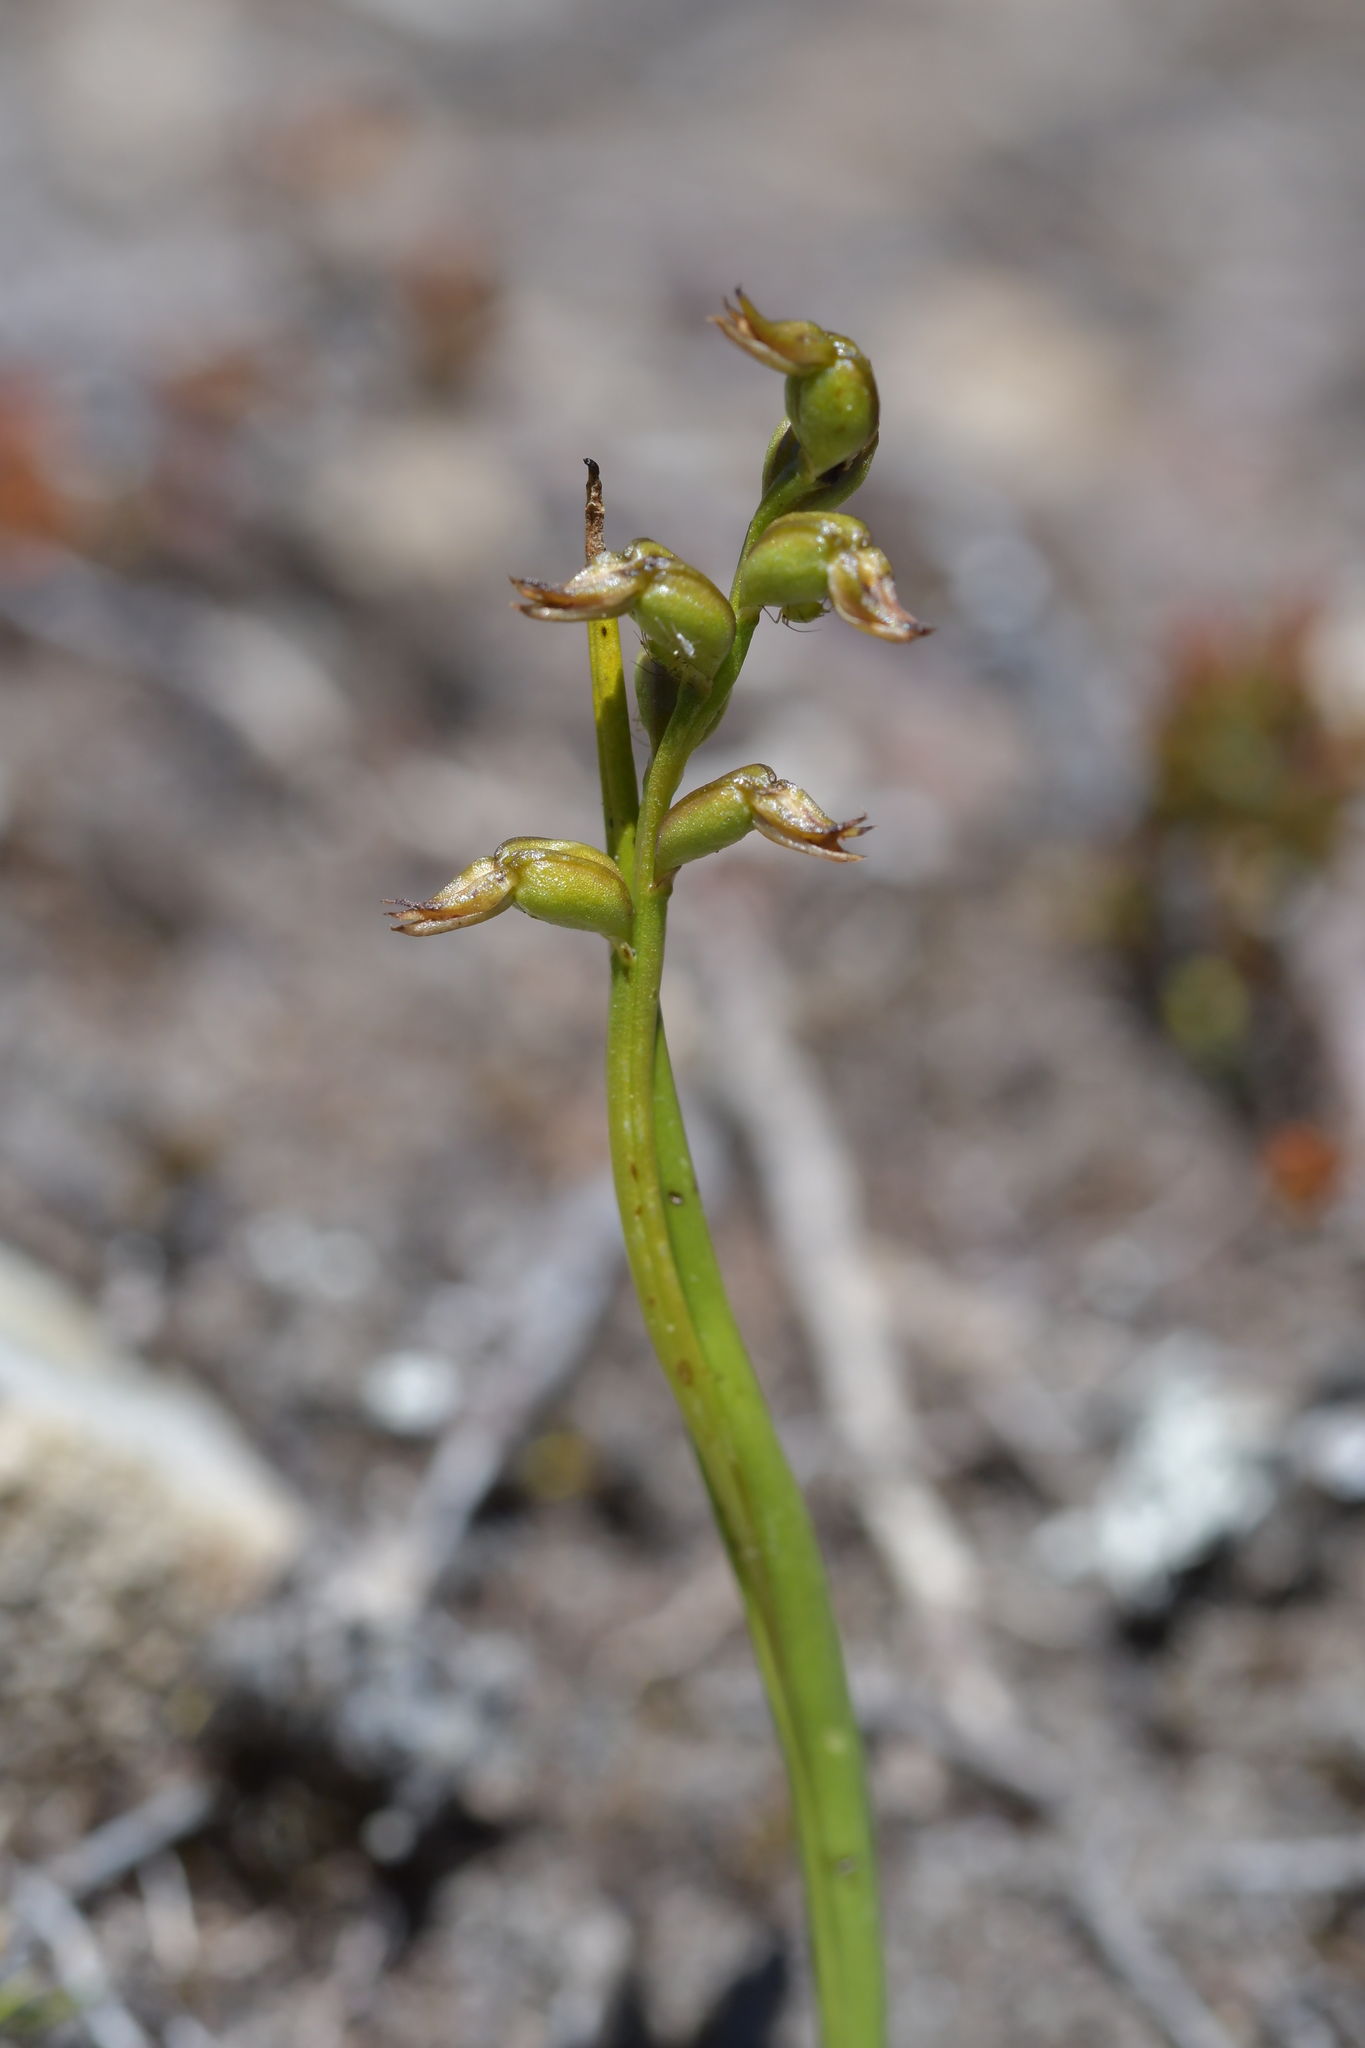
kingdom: Plantae
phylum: Tracheophyta
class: Liliopsida
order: Asparagales
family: Orchidaceae
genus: Prasophyllum
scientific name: Prasophyllum colensoi
